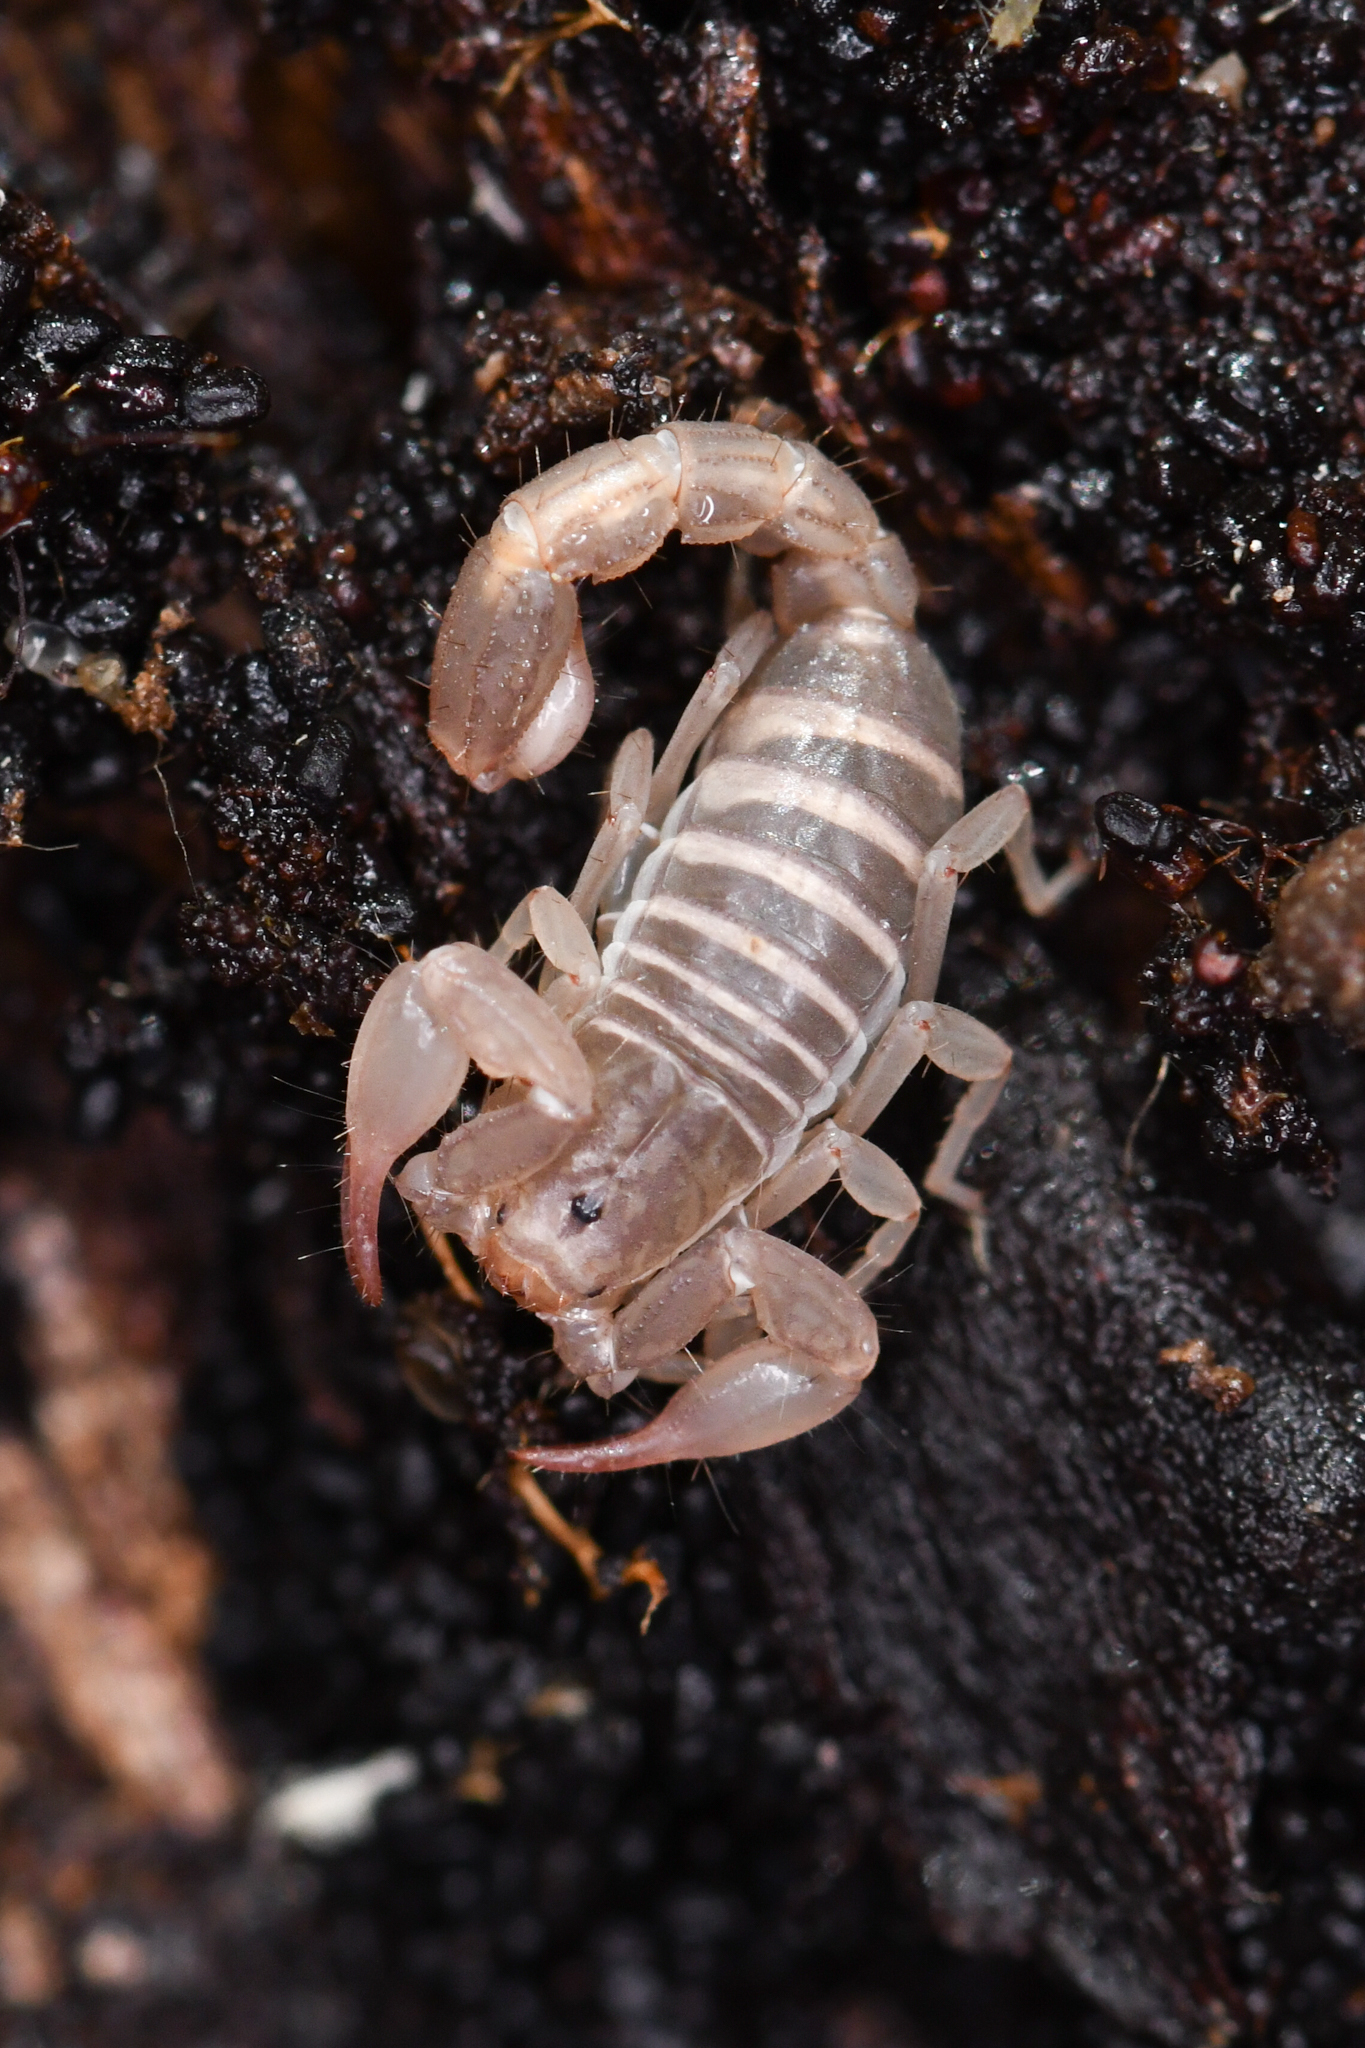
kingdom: Animalia
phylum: Arthropoda
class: Arachnida
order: Scorpiones
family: Vaejovidae
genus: Catalinia
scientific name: Catalinia minima
